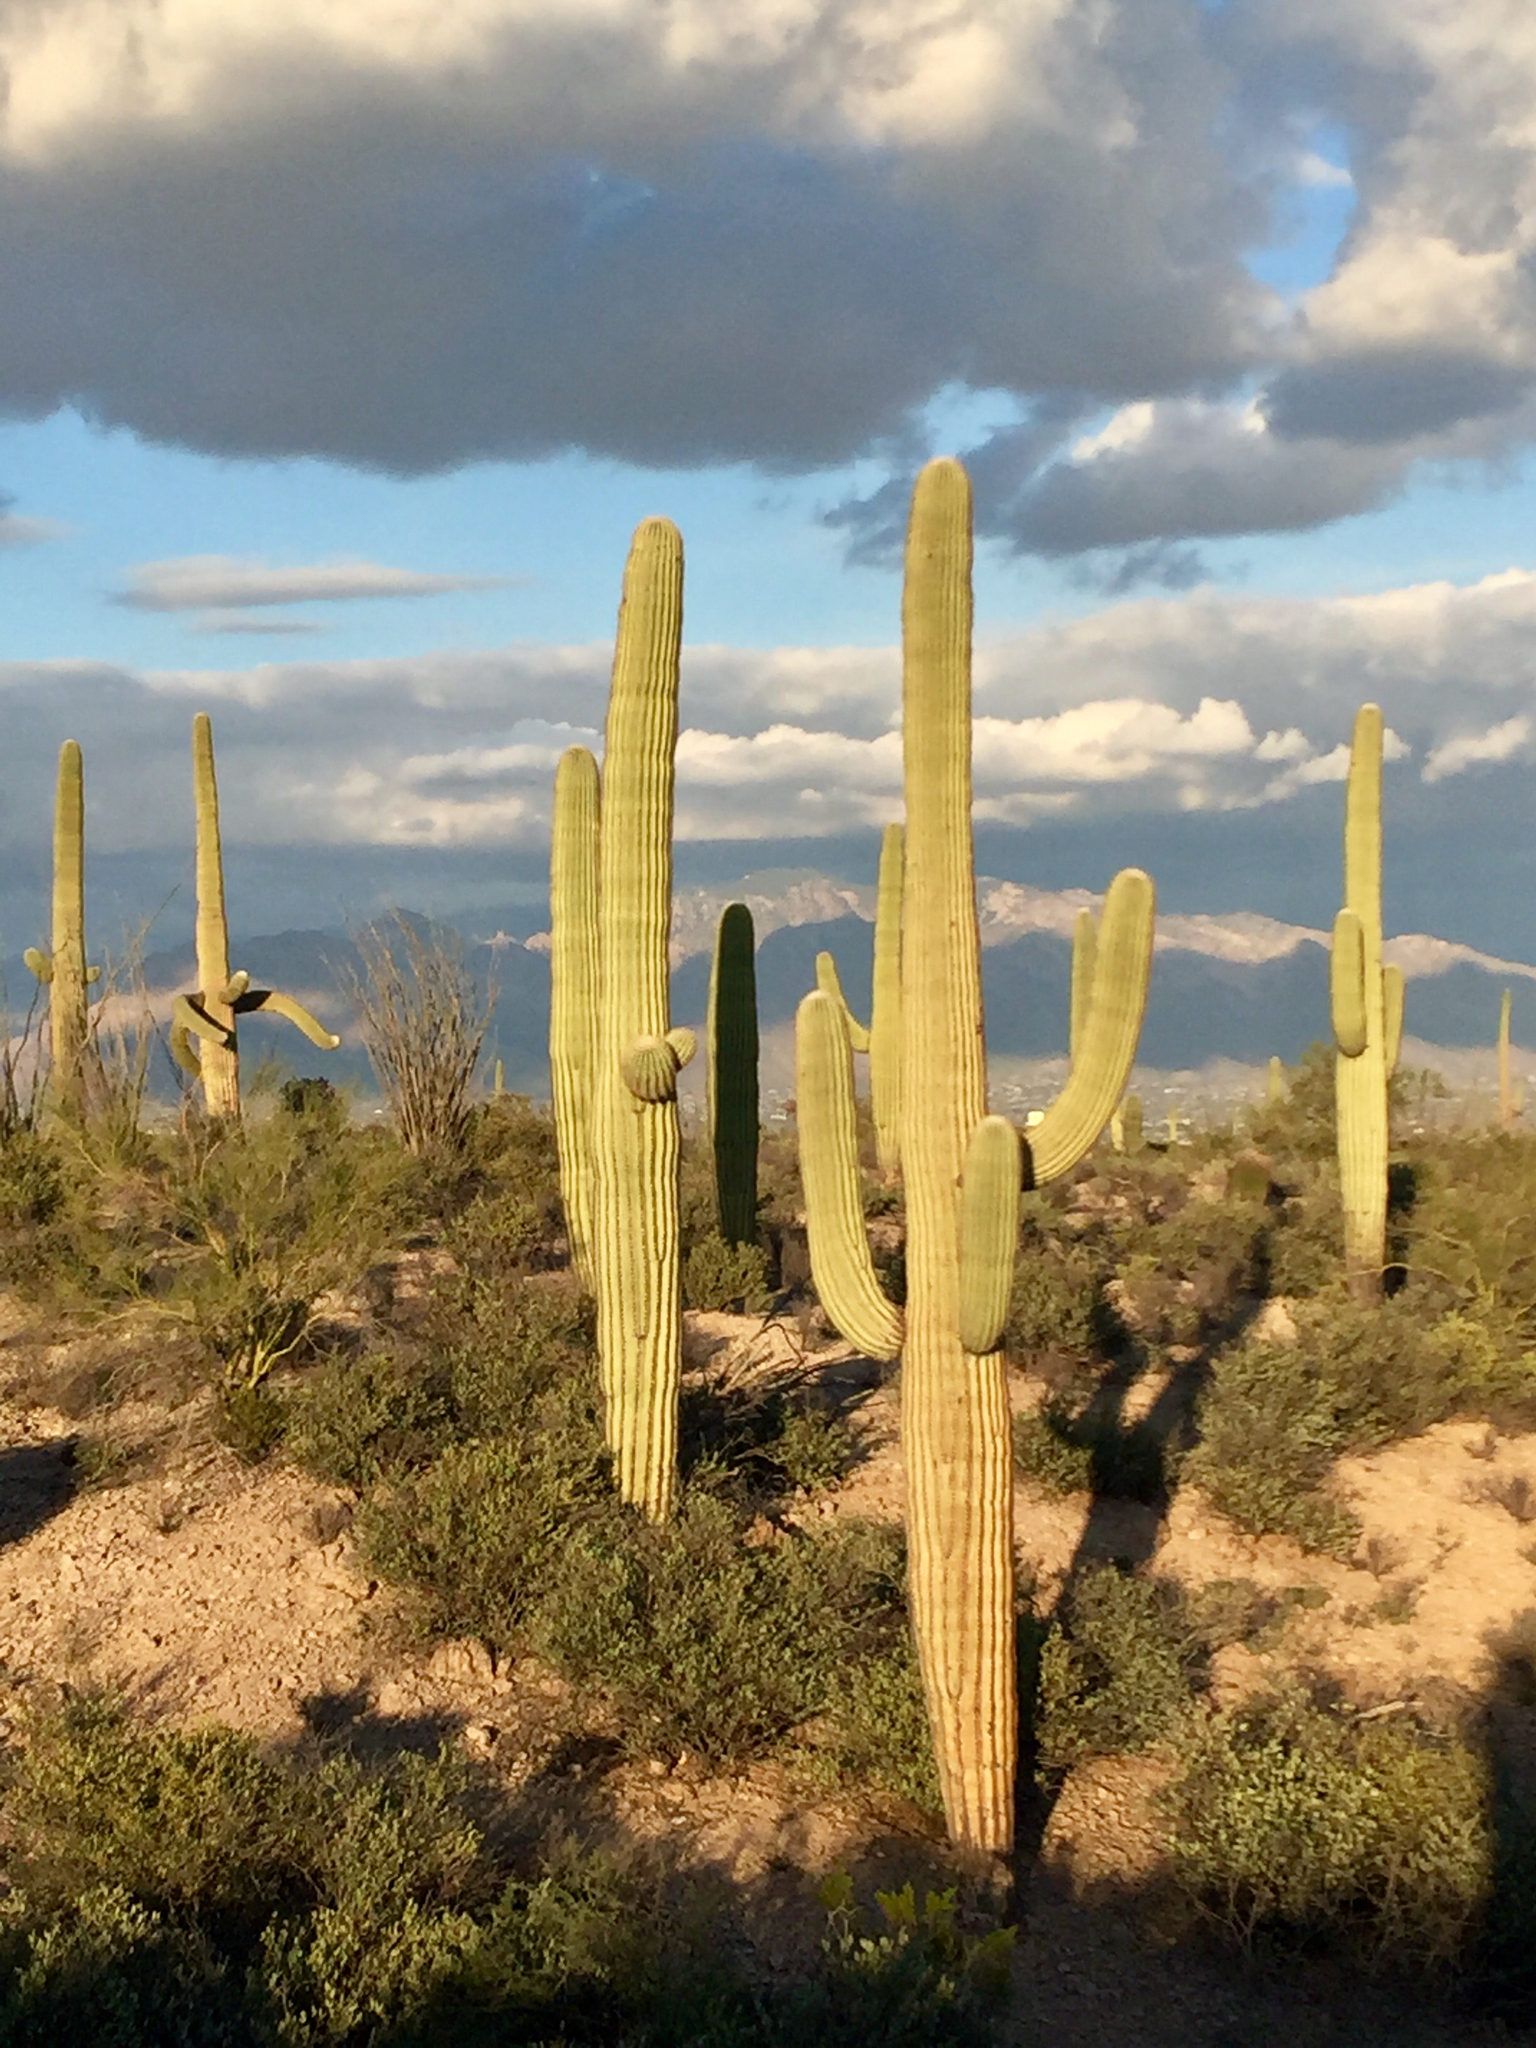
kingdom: Plantae
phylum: Tracheophyta
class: Magnoliopsida
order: Caryophyllales
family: Cactaceae
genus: Carnegiea
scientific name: Carnegiea gigantea
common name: Saguaro
